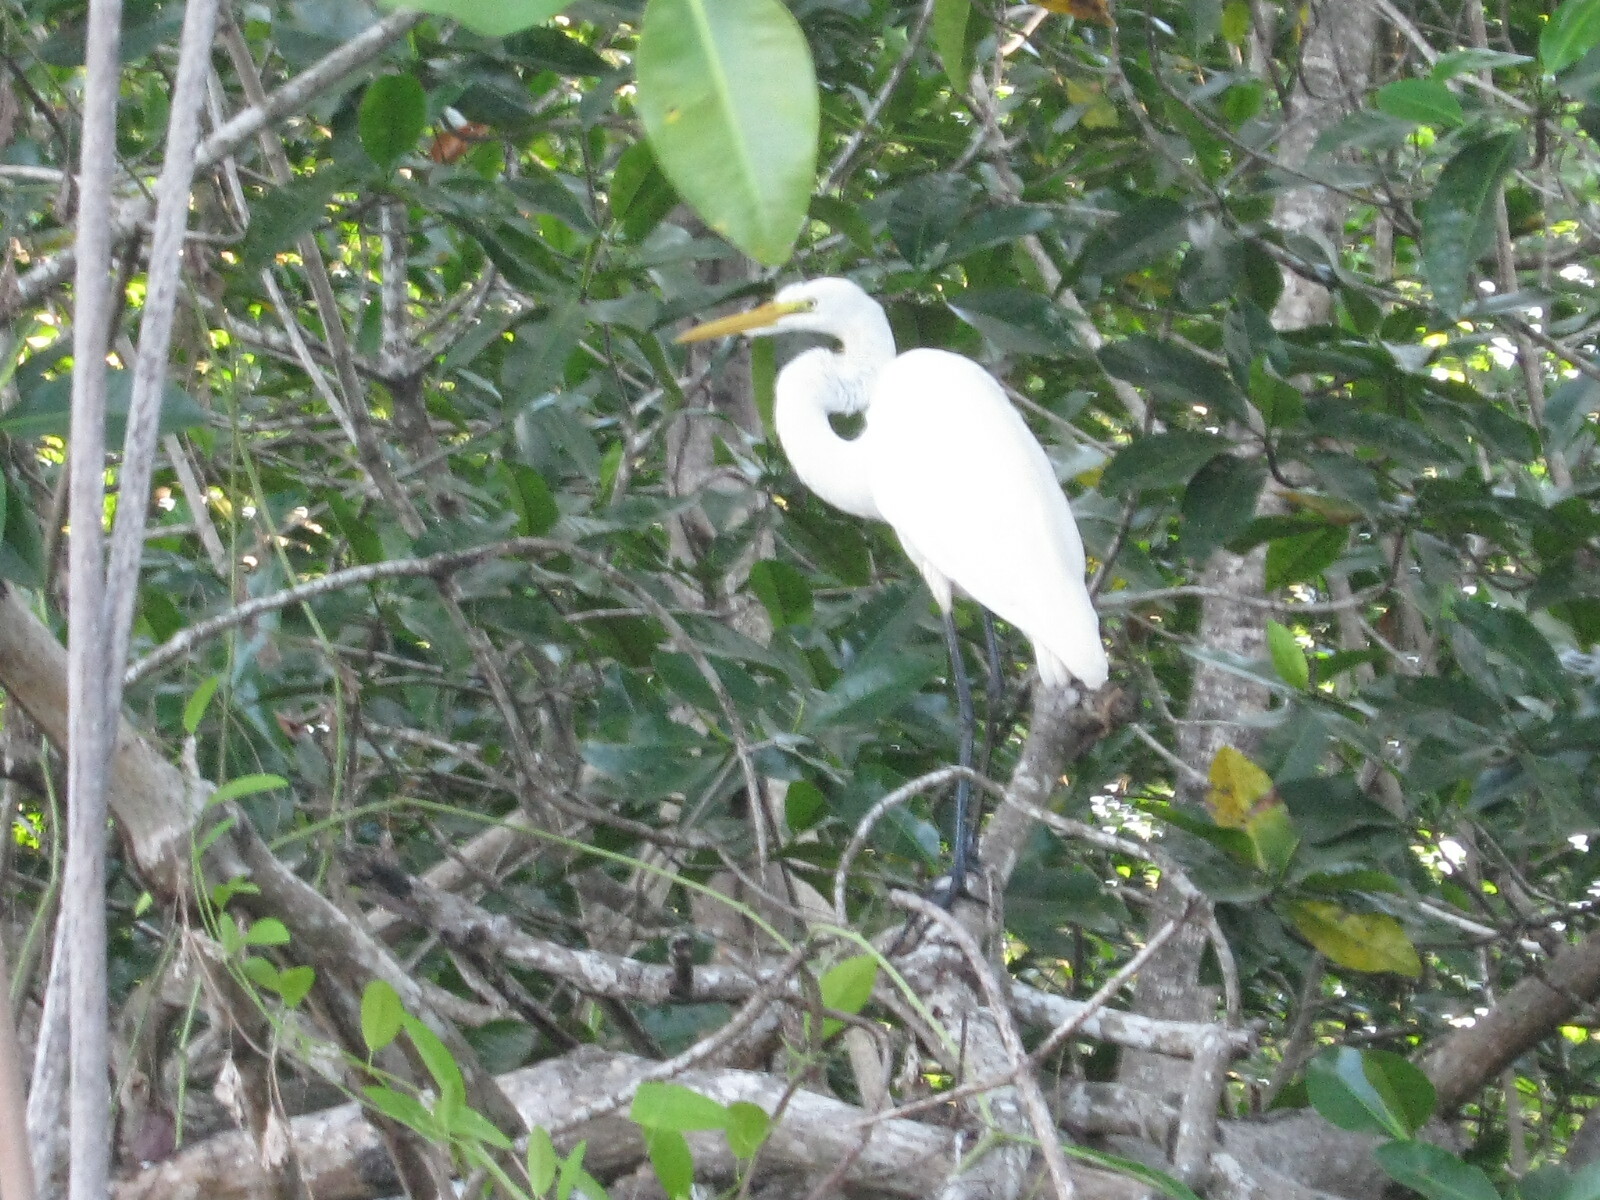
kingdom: Animalia
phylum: Chordata
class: Aves
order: Pelecaniformes
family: Ardeidae
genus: Ardea
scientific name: Ardea alba
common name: Great egret
